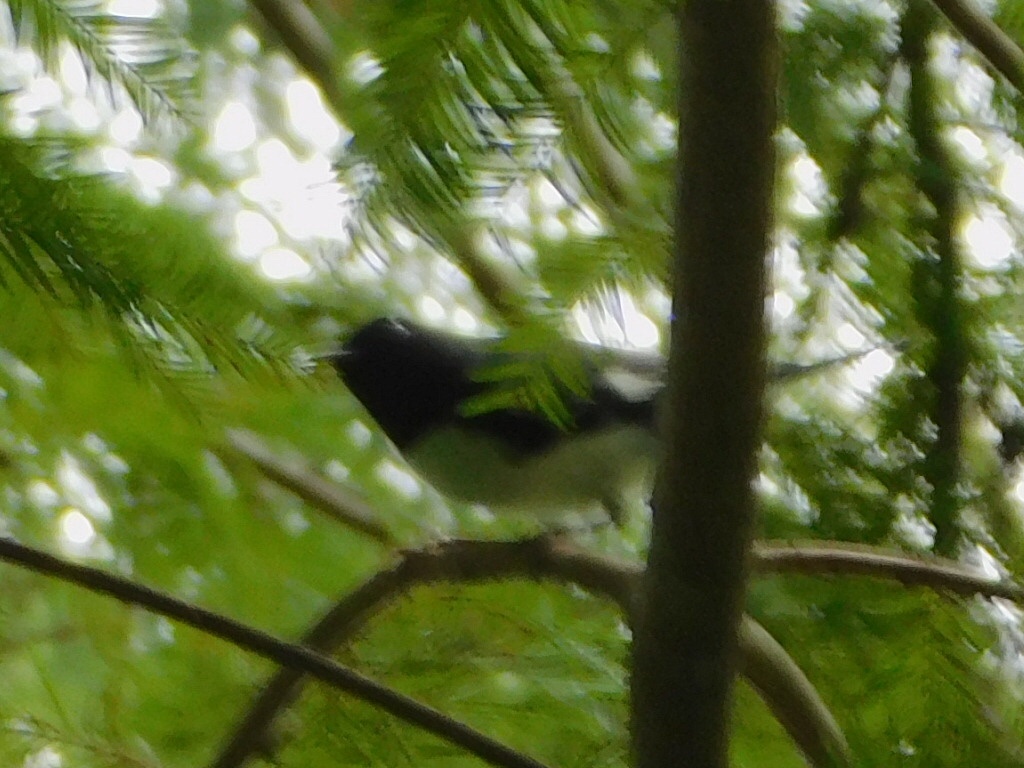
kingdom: Animalia
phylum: Chordata
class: Aves
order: Passeriformes
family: Parulidae
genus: Setophaga
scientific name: Setophaga caerulescens
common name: Black-throated blue warbler
